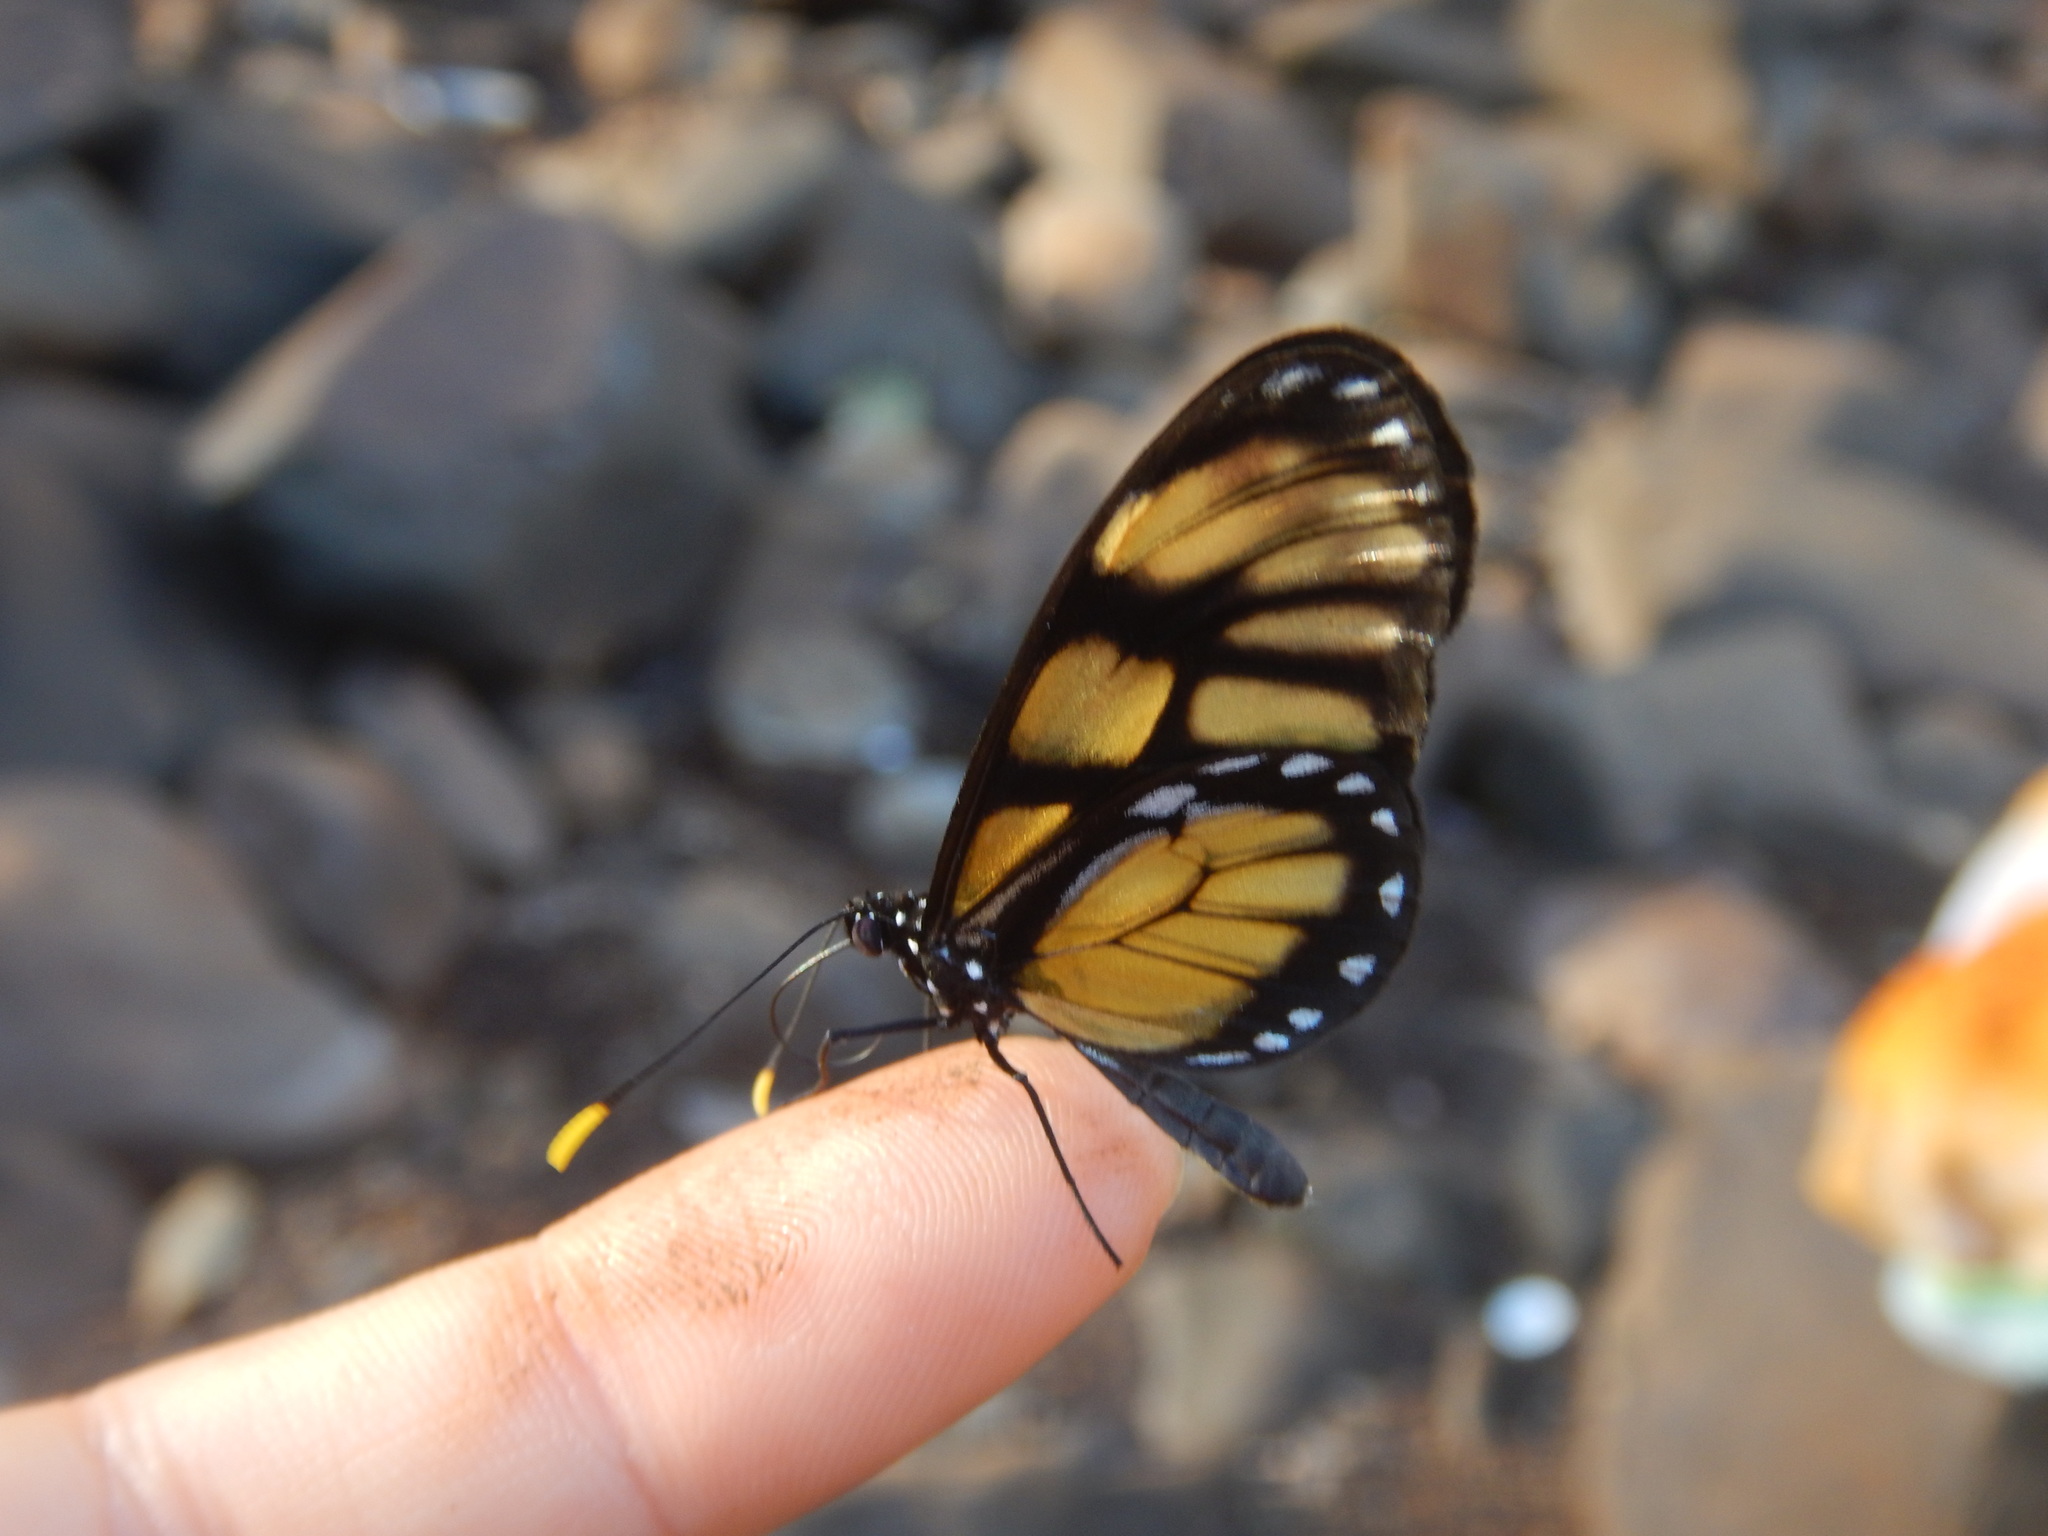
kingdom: Animalia
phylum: Arthropoda
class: Insecta
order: Lepidoptera
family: Nymphalidae
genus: Dircenna
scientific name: Dircenna dero
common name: Dero clearwing
